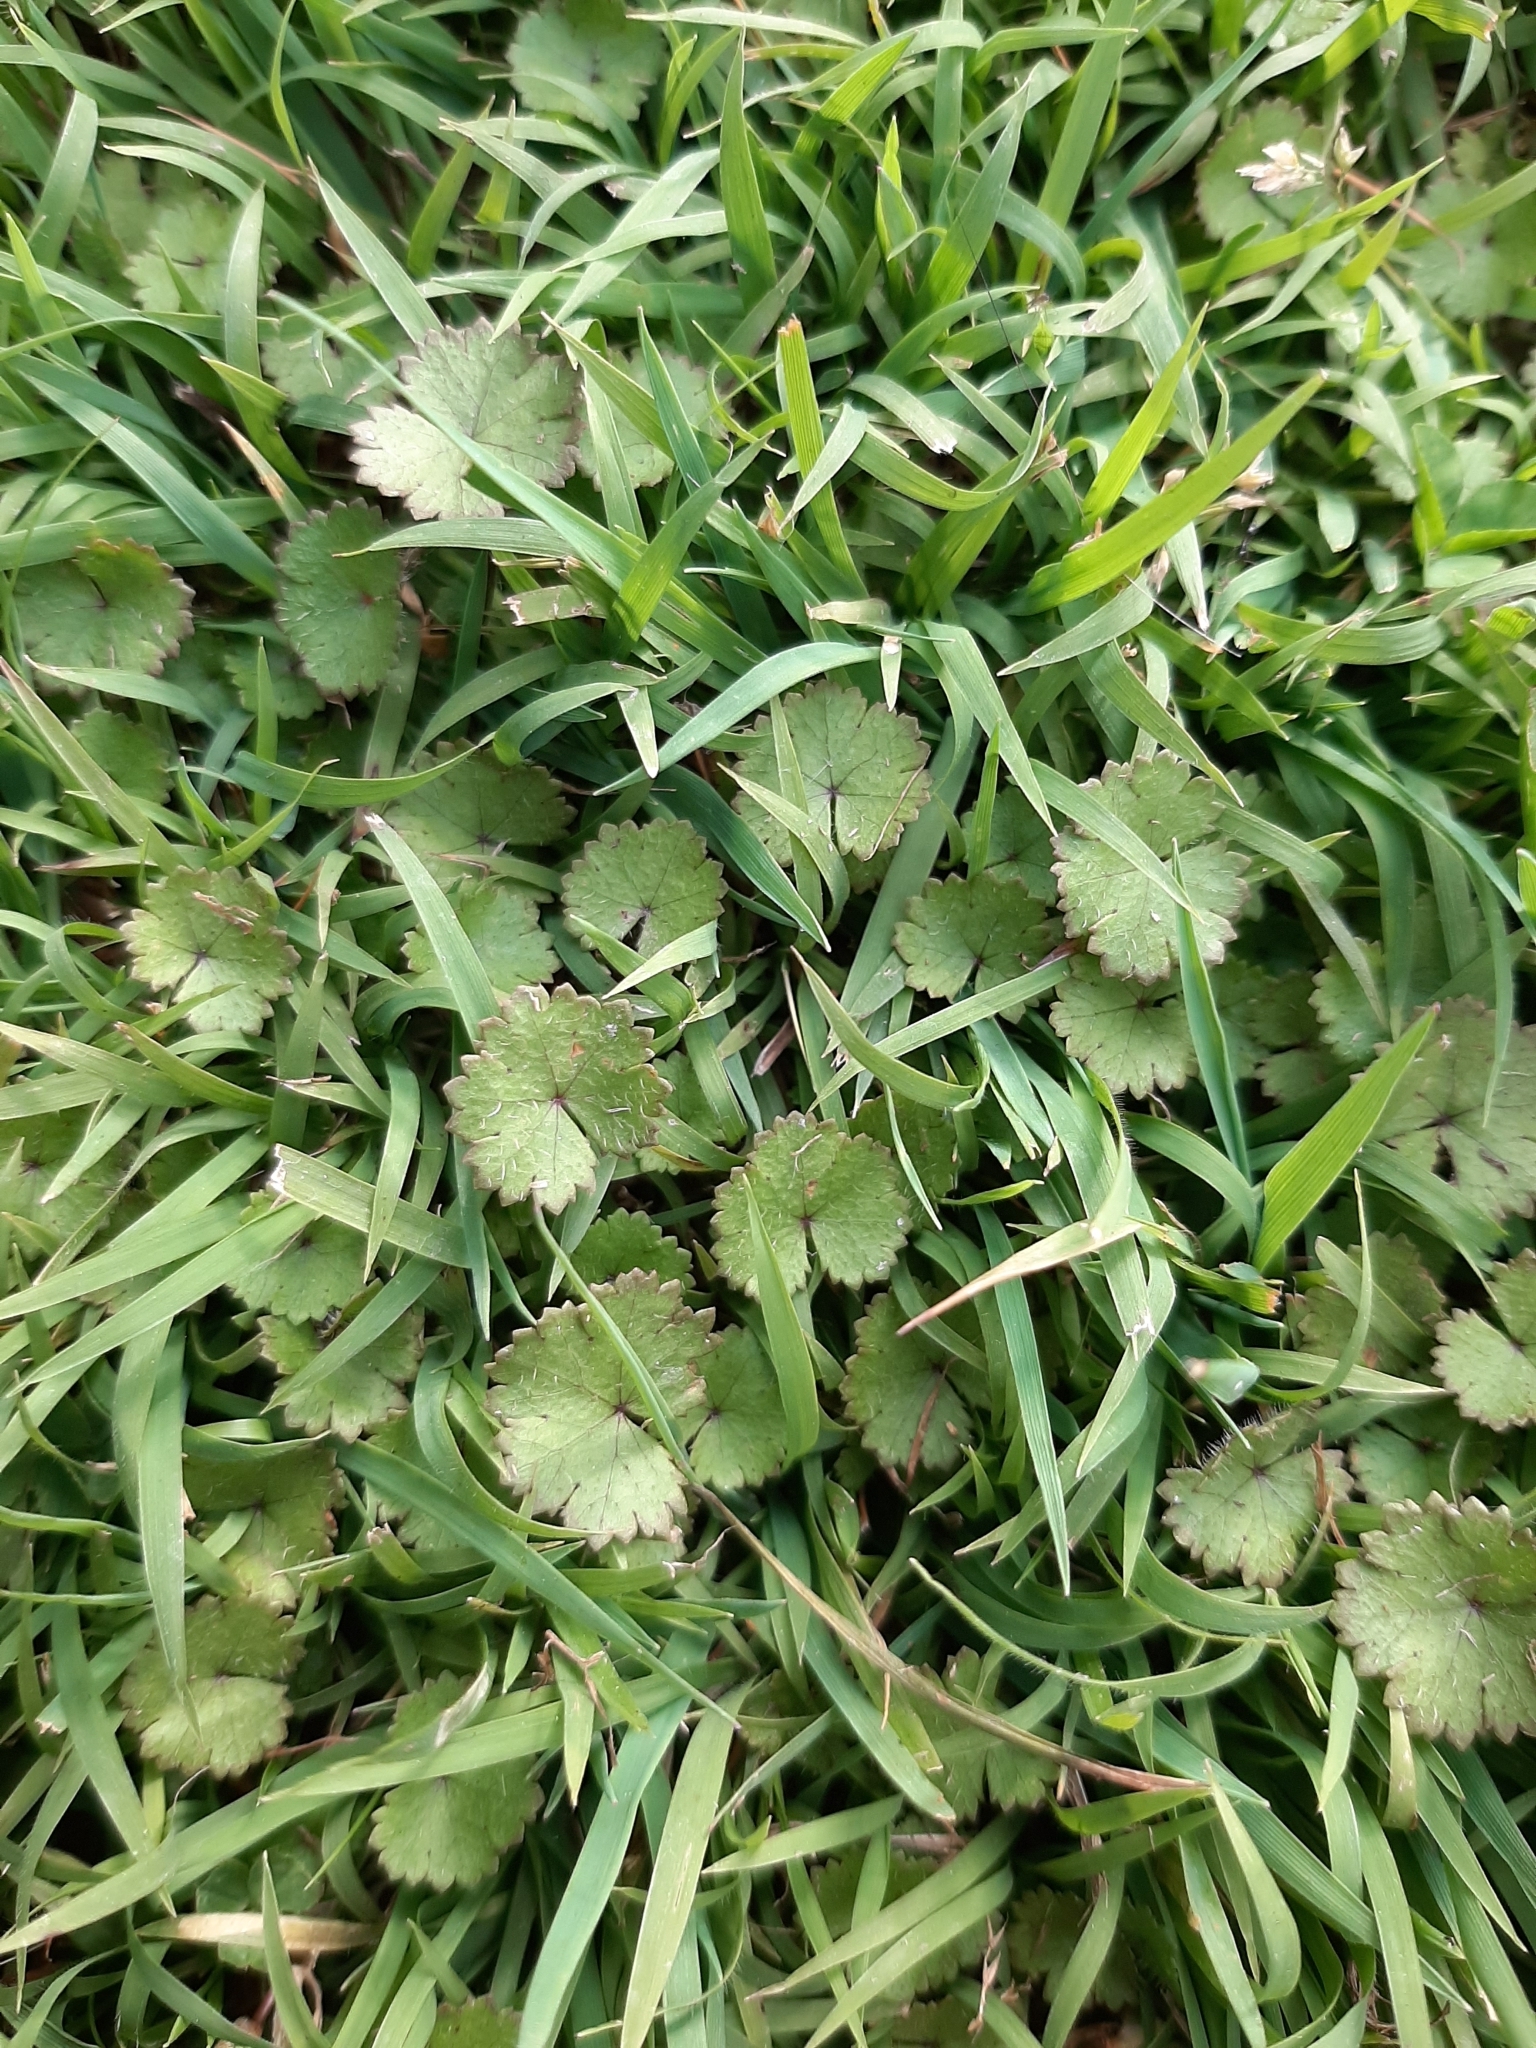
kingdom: Plantae
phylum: Tracheophyta
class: Magnoliopsida
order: Apiales
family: Araliaceae
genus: Hydrocotyle
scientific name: Hydrocotyle moschata
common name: Hairy pennywort
